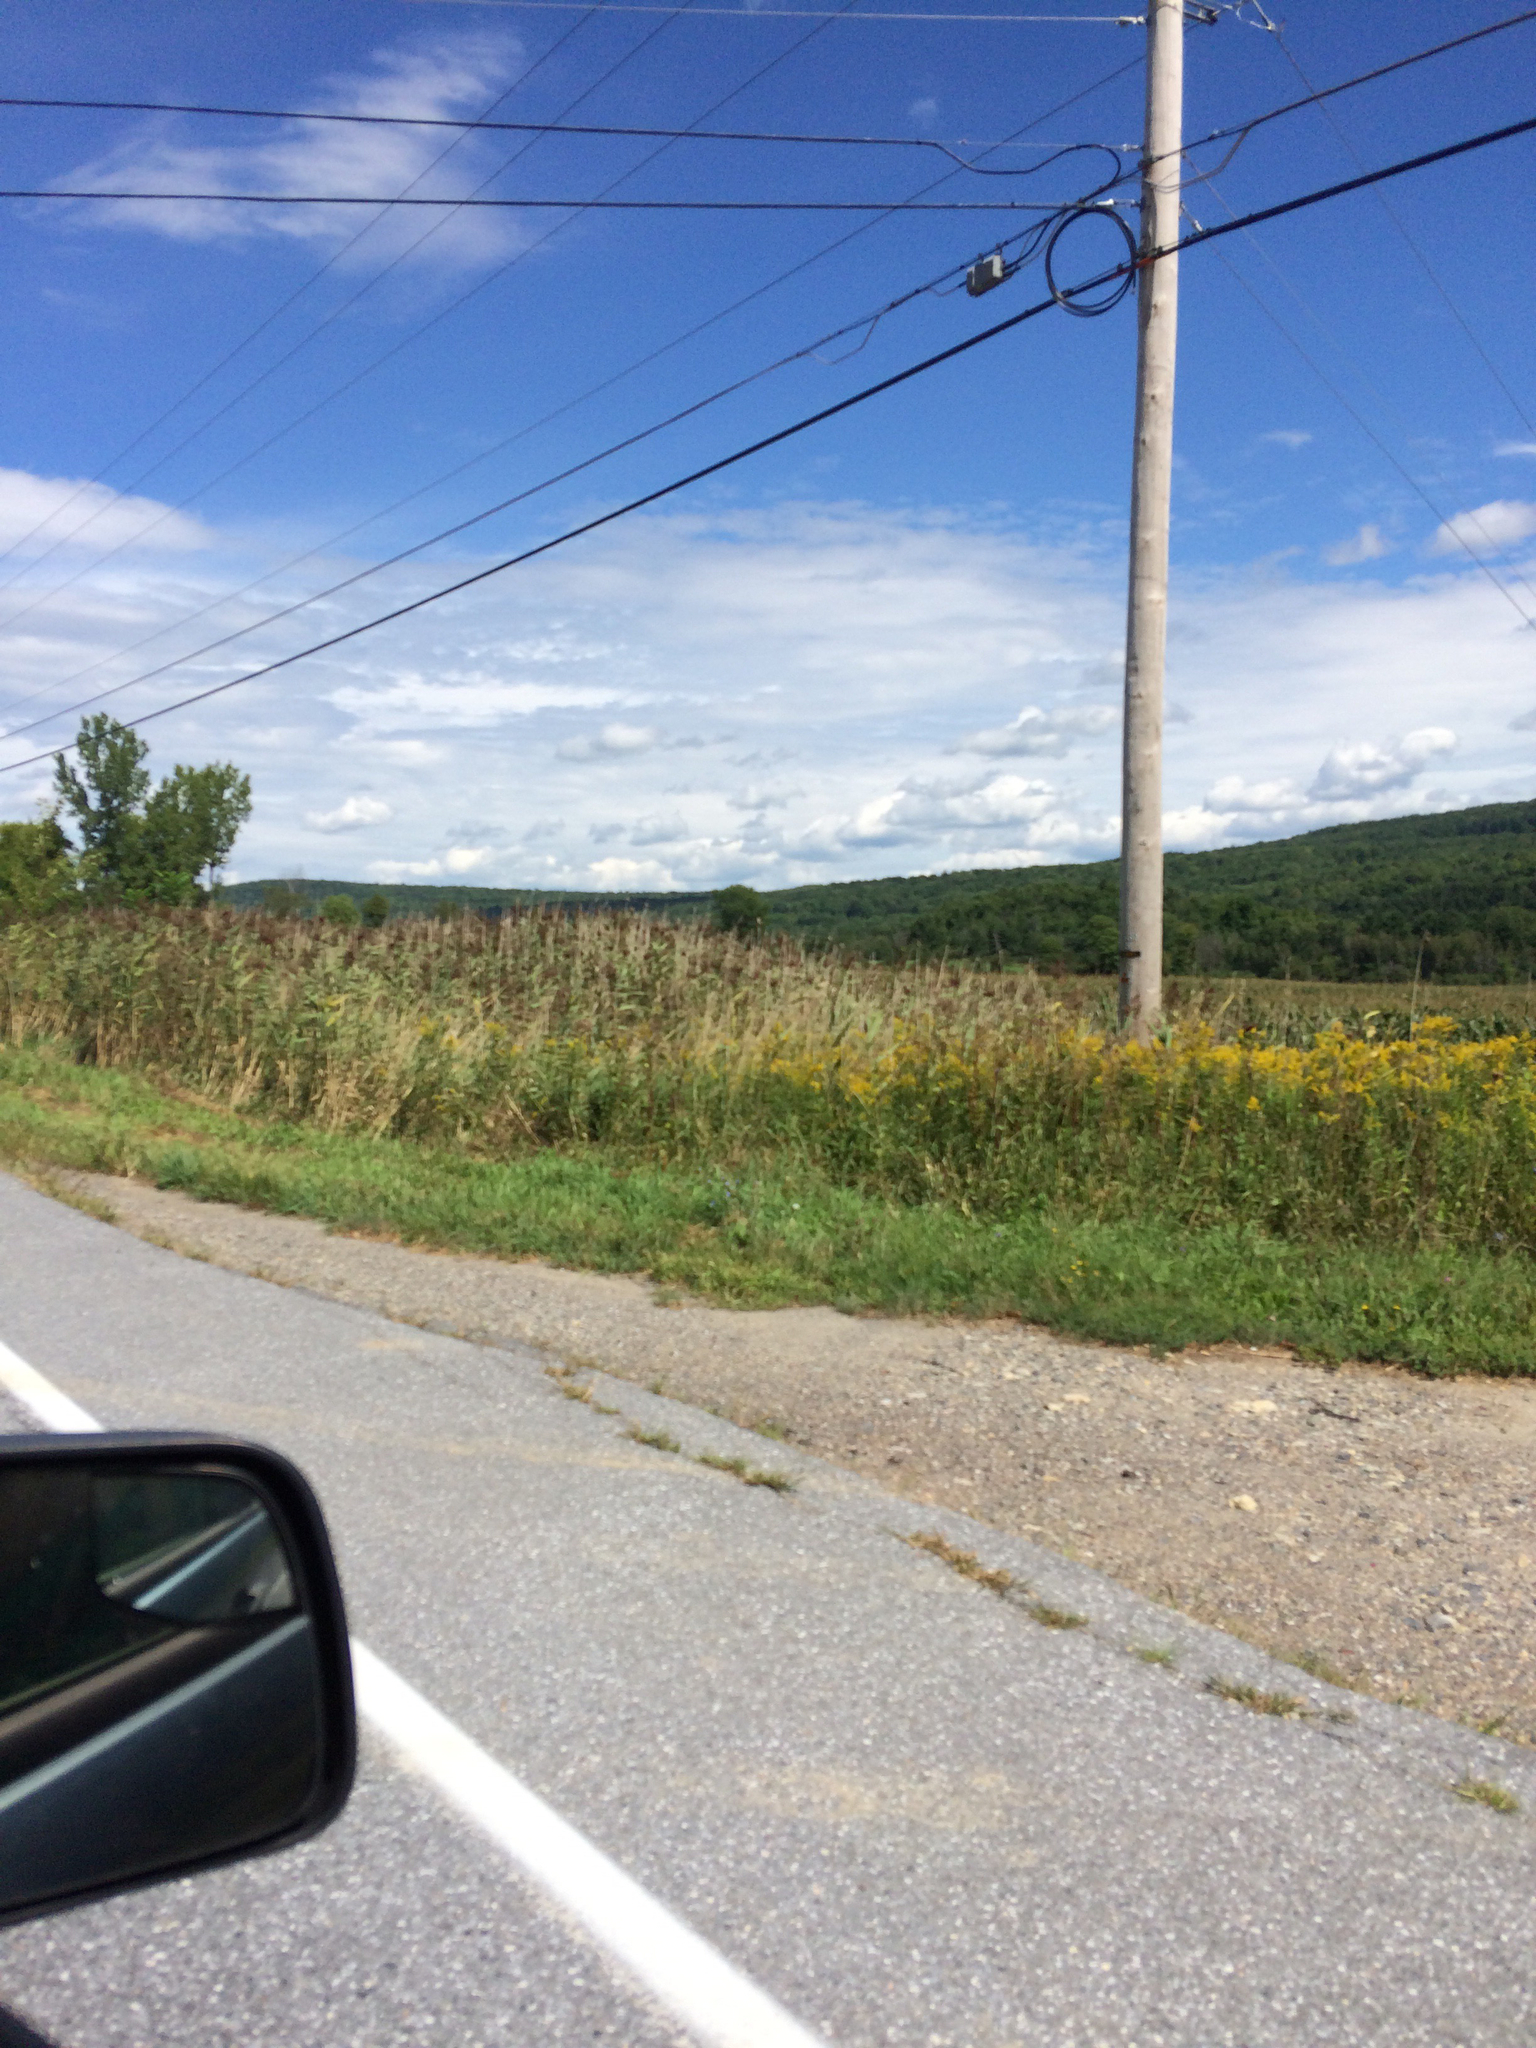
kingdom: Plantae
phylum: Tracheophyta
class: Liliopsida
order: Poales
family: Poaceae
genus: Phragmites
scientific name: Phragmites australis
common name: Common reed
